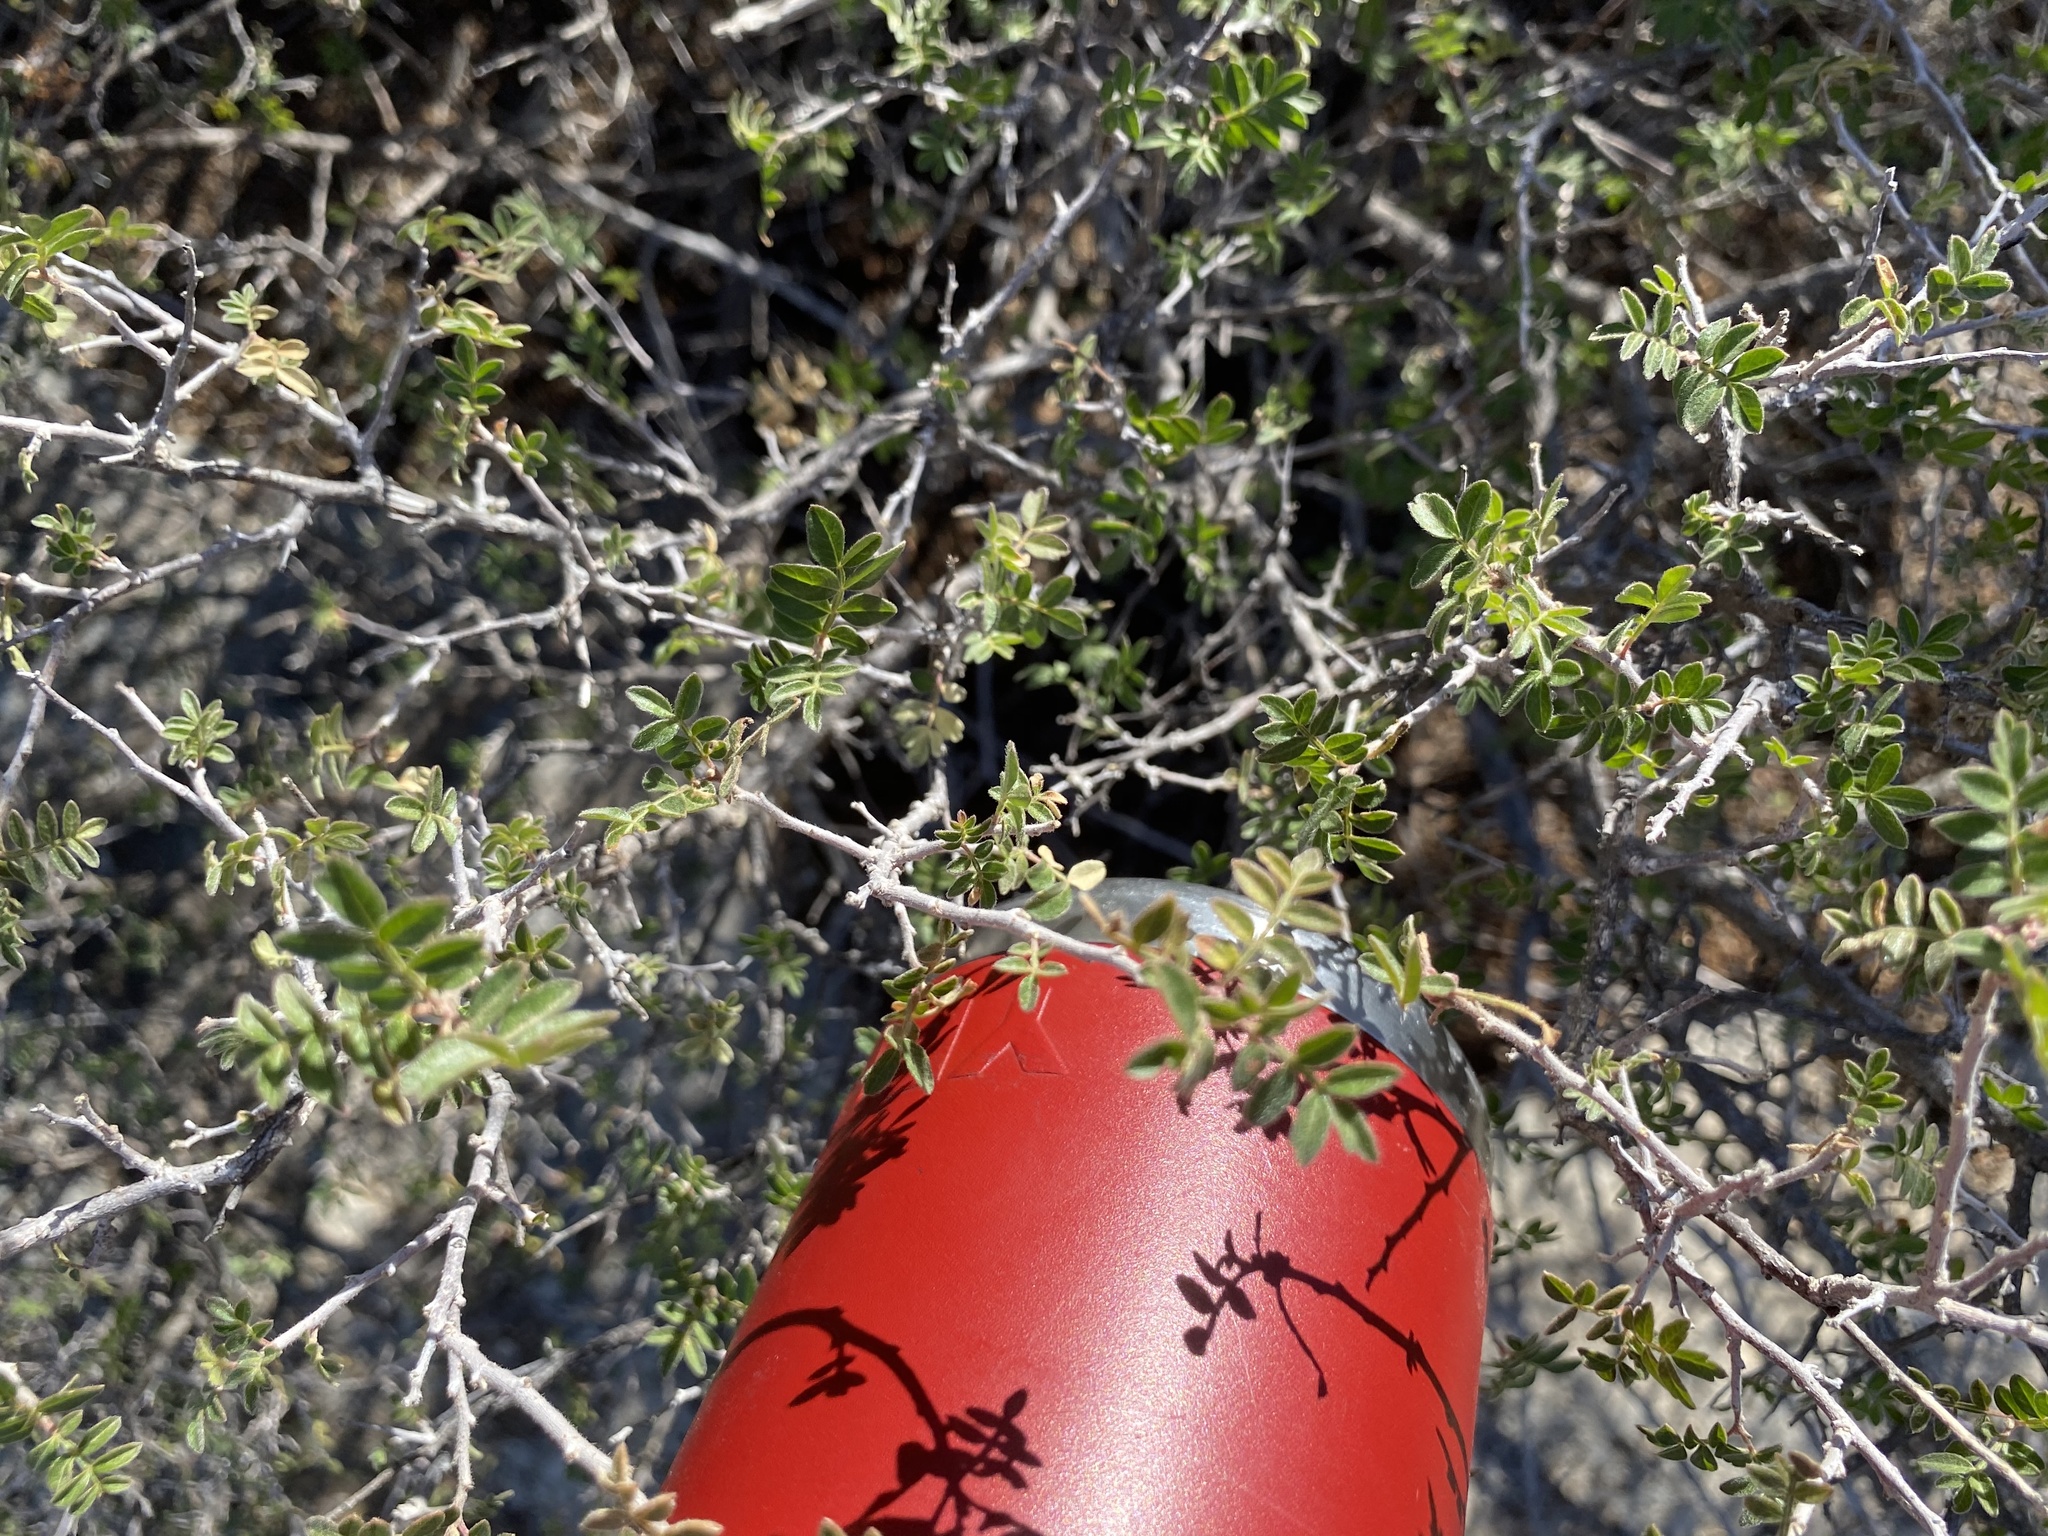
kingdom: Plantae
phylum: Tracheophyta
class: Magnoliopsida
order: Sapindales
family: Anacardiaceae
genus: Rhus
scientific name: Rhus microphylla
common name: Desert sumac
